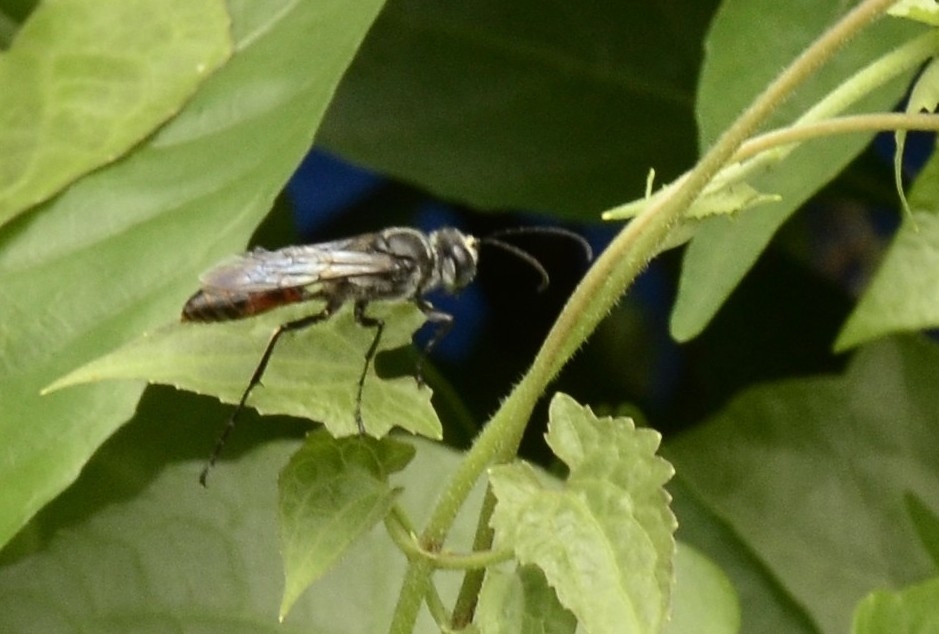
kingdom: Animalia
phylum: Arthropoda
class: Insecta
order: Hymenoptera
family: Sphecidae
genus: Sphex
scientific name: Sphex sericeus
